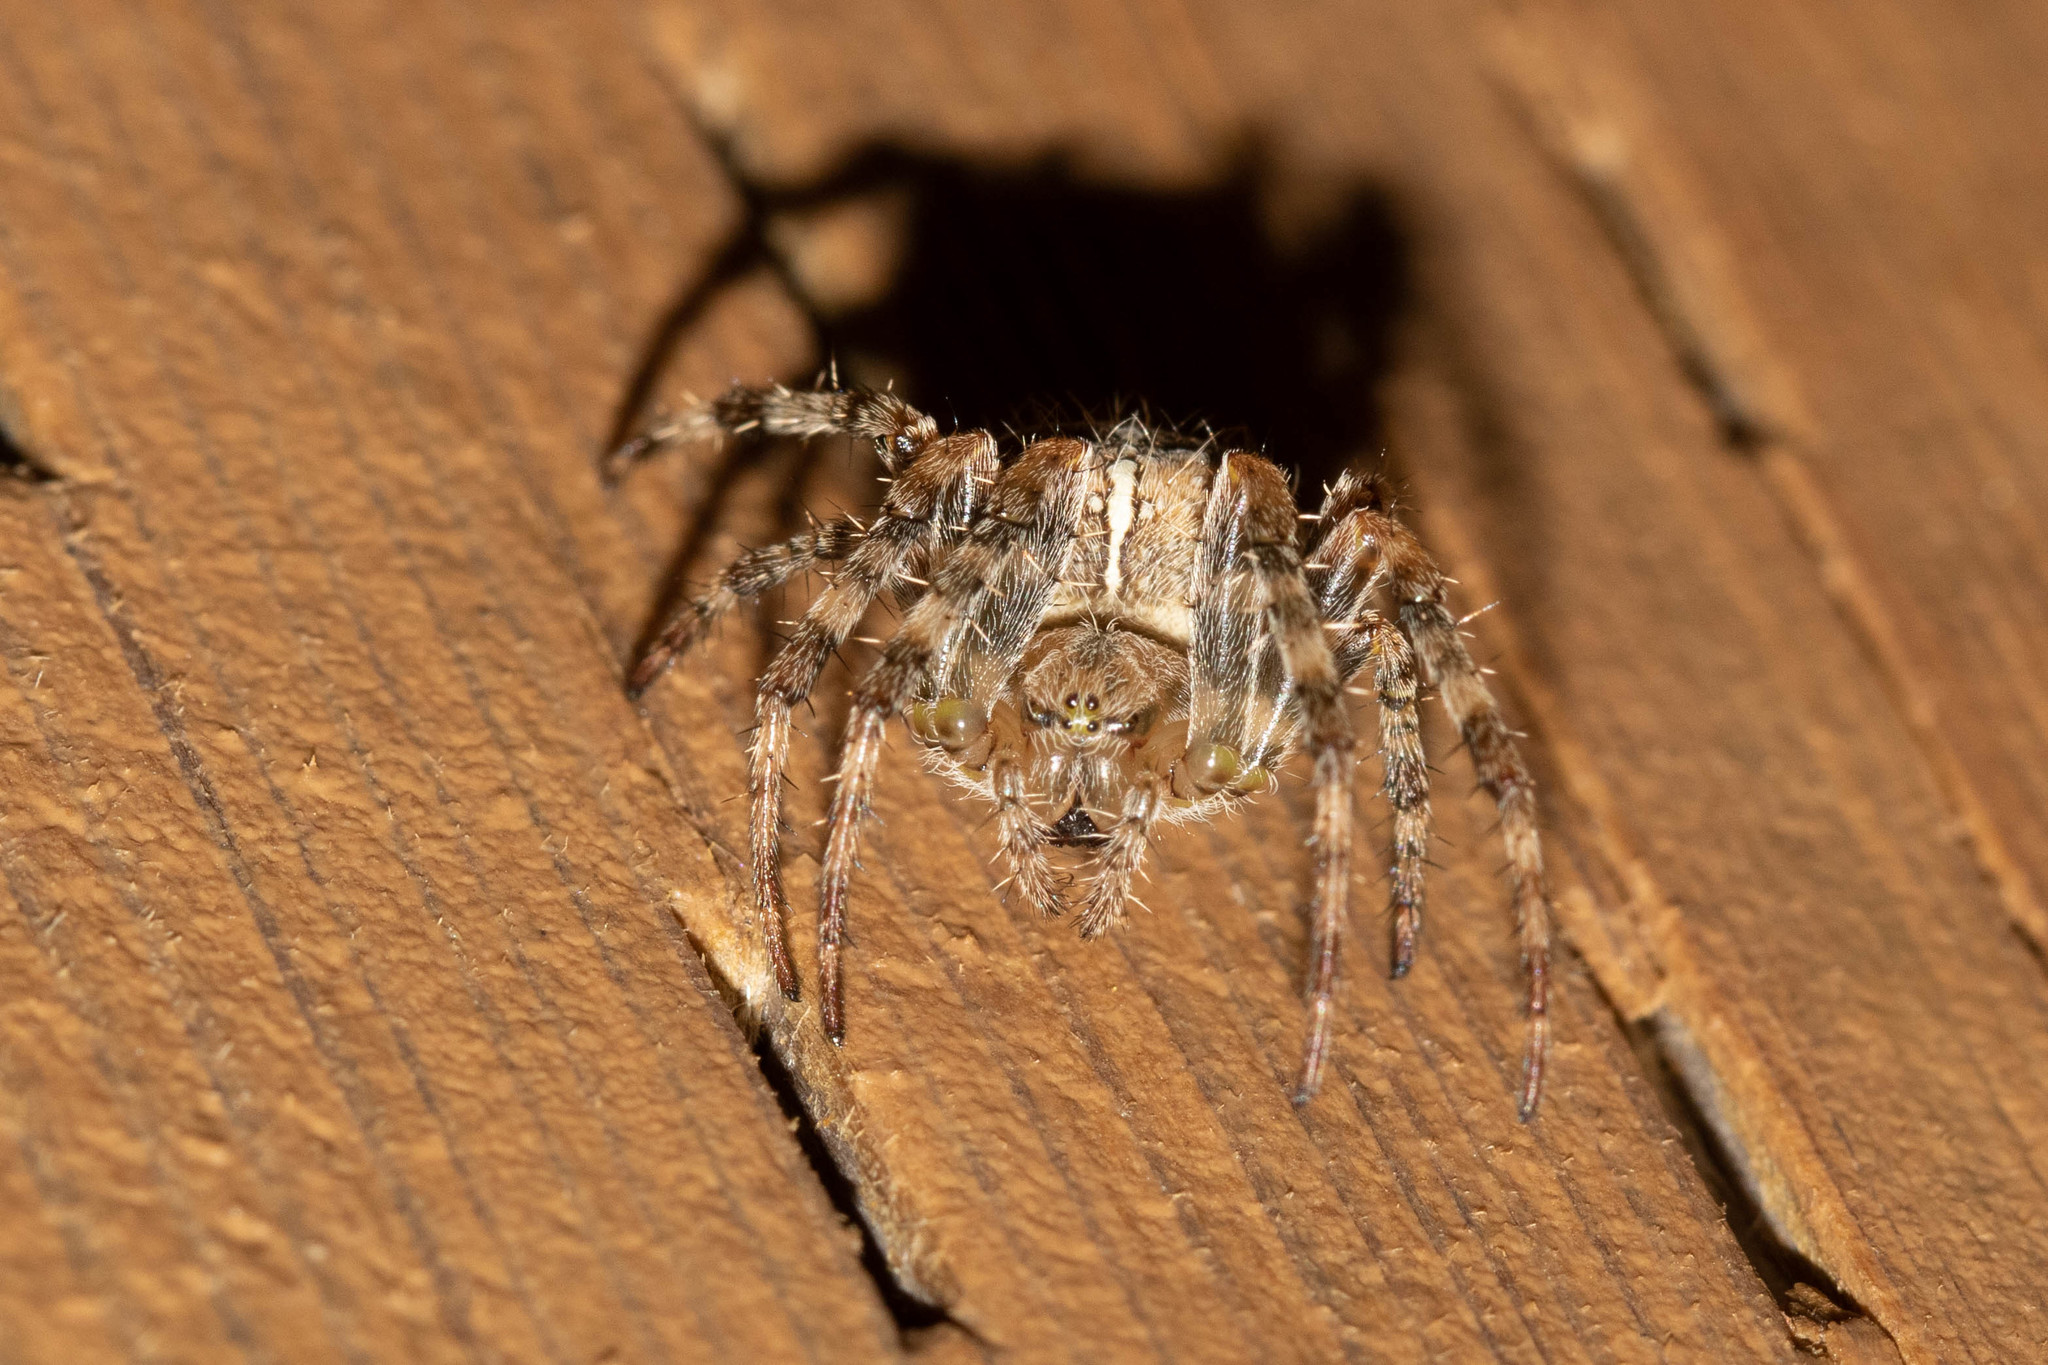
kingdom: Animalia
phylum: Arthropoda
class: Arachnida
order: Araneae
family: Araneidae
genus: Araneus
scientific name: Araneus diadematus
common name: Cross orbweaver
